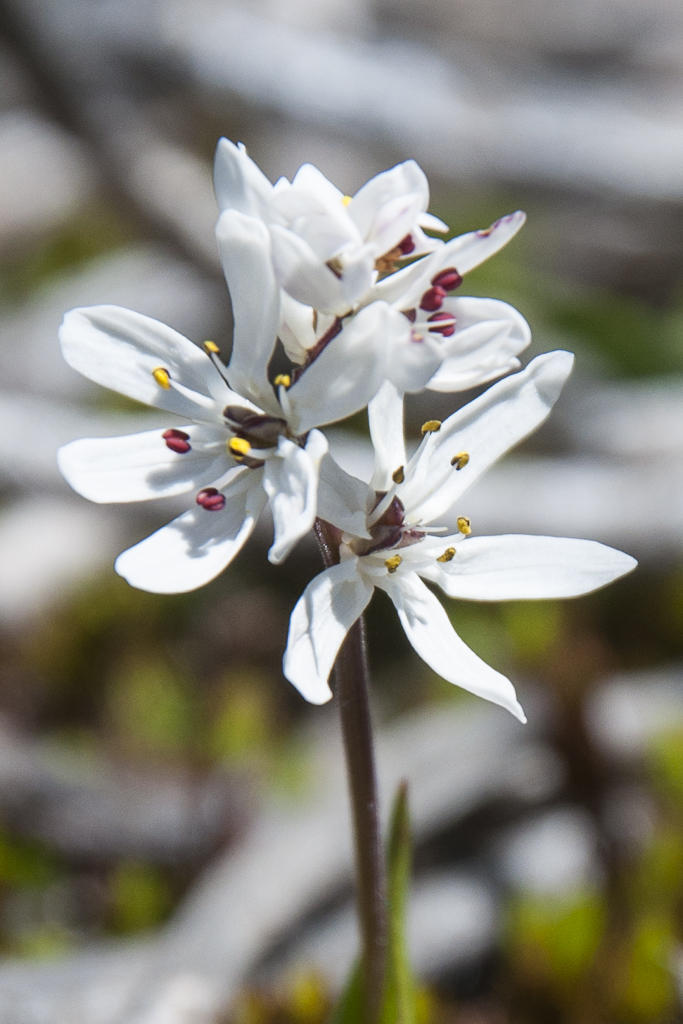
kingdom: Plantae
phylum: Tracheophyta
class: Liliopsida
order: Liliales
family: Colchicaceae
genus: Wurmbea
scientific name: Wurmbea punctata
